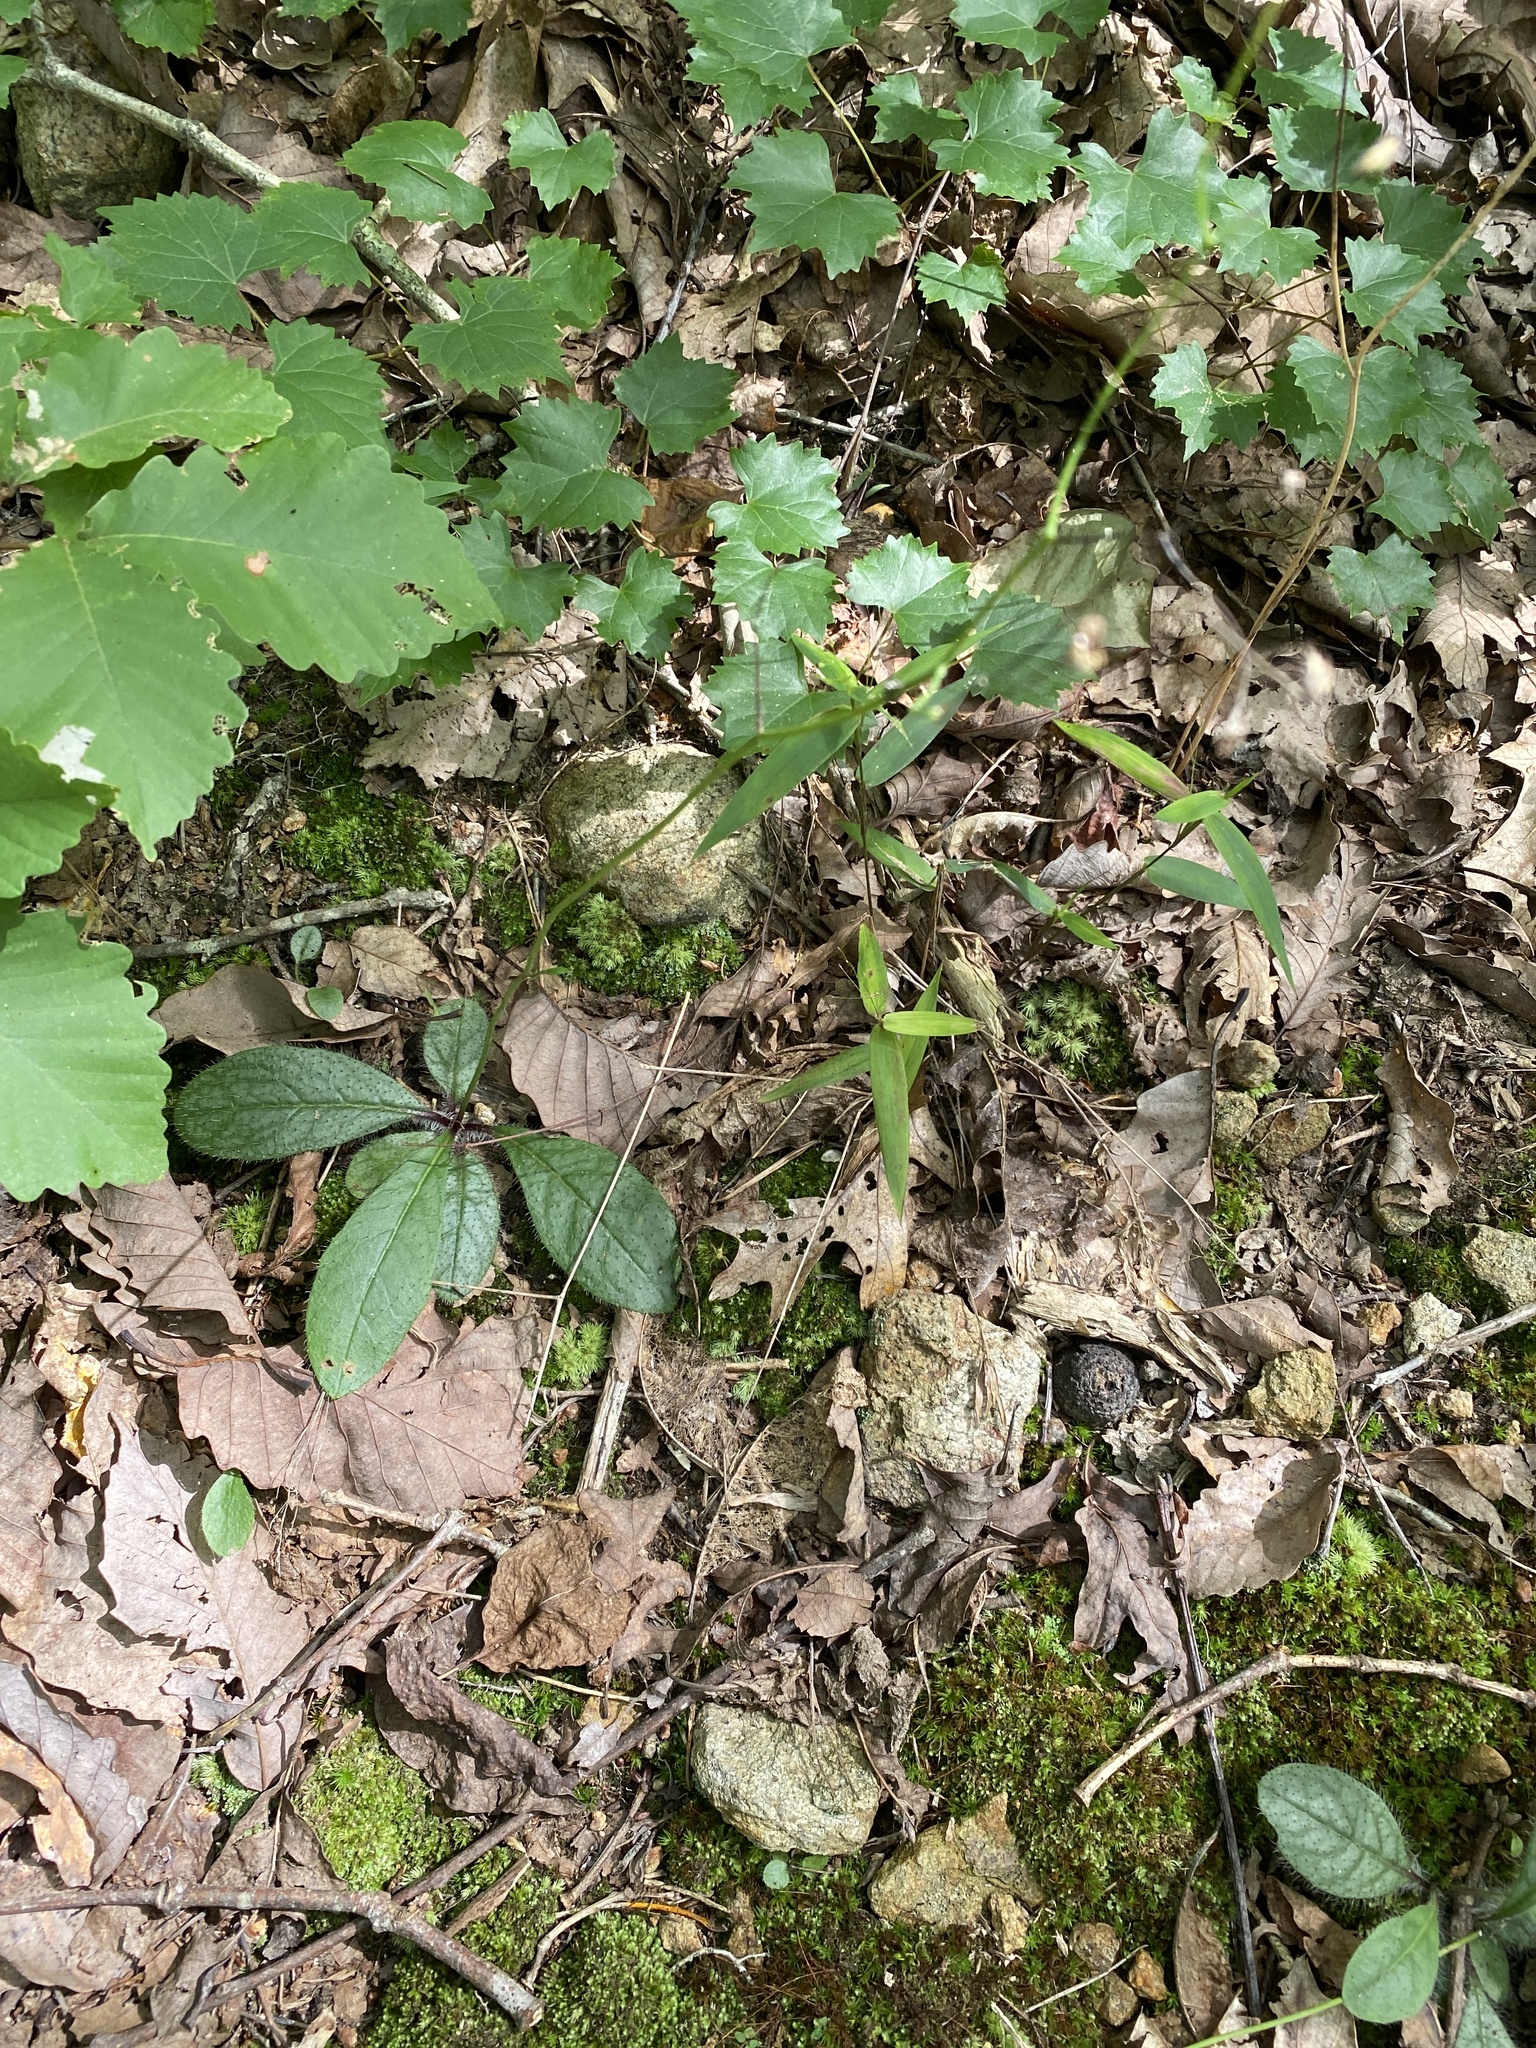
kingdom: Plantae
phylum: Tracheophyta
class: Magnoliopsida
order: Asterales
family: Asteraceae
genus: Hieracium
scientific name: Hieracium venosum
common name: Rattlesnake hawkweed
